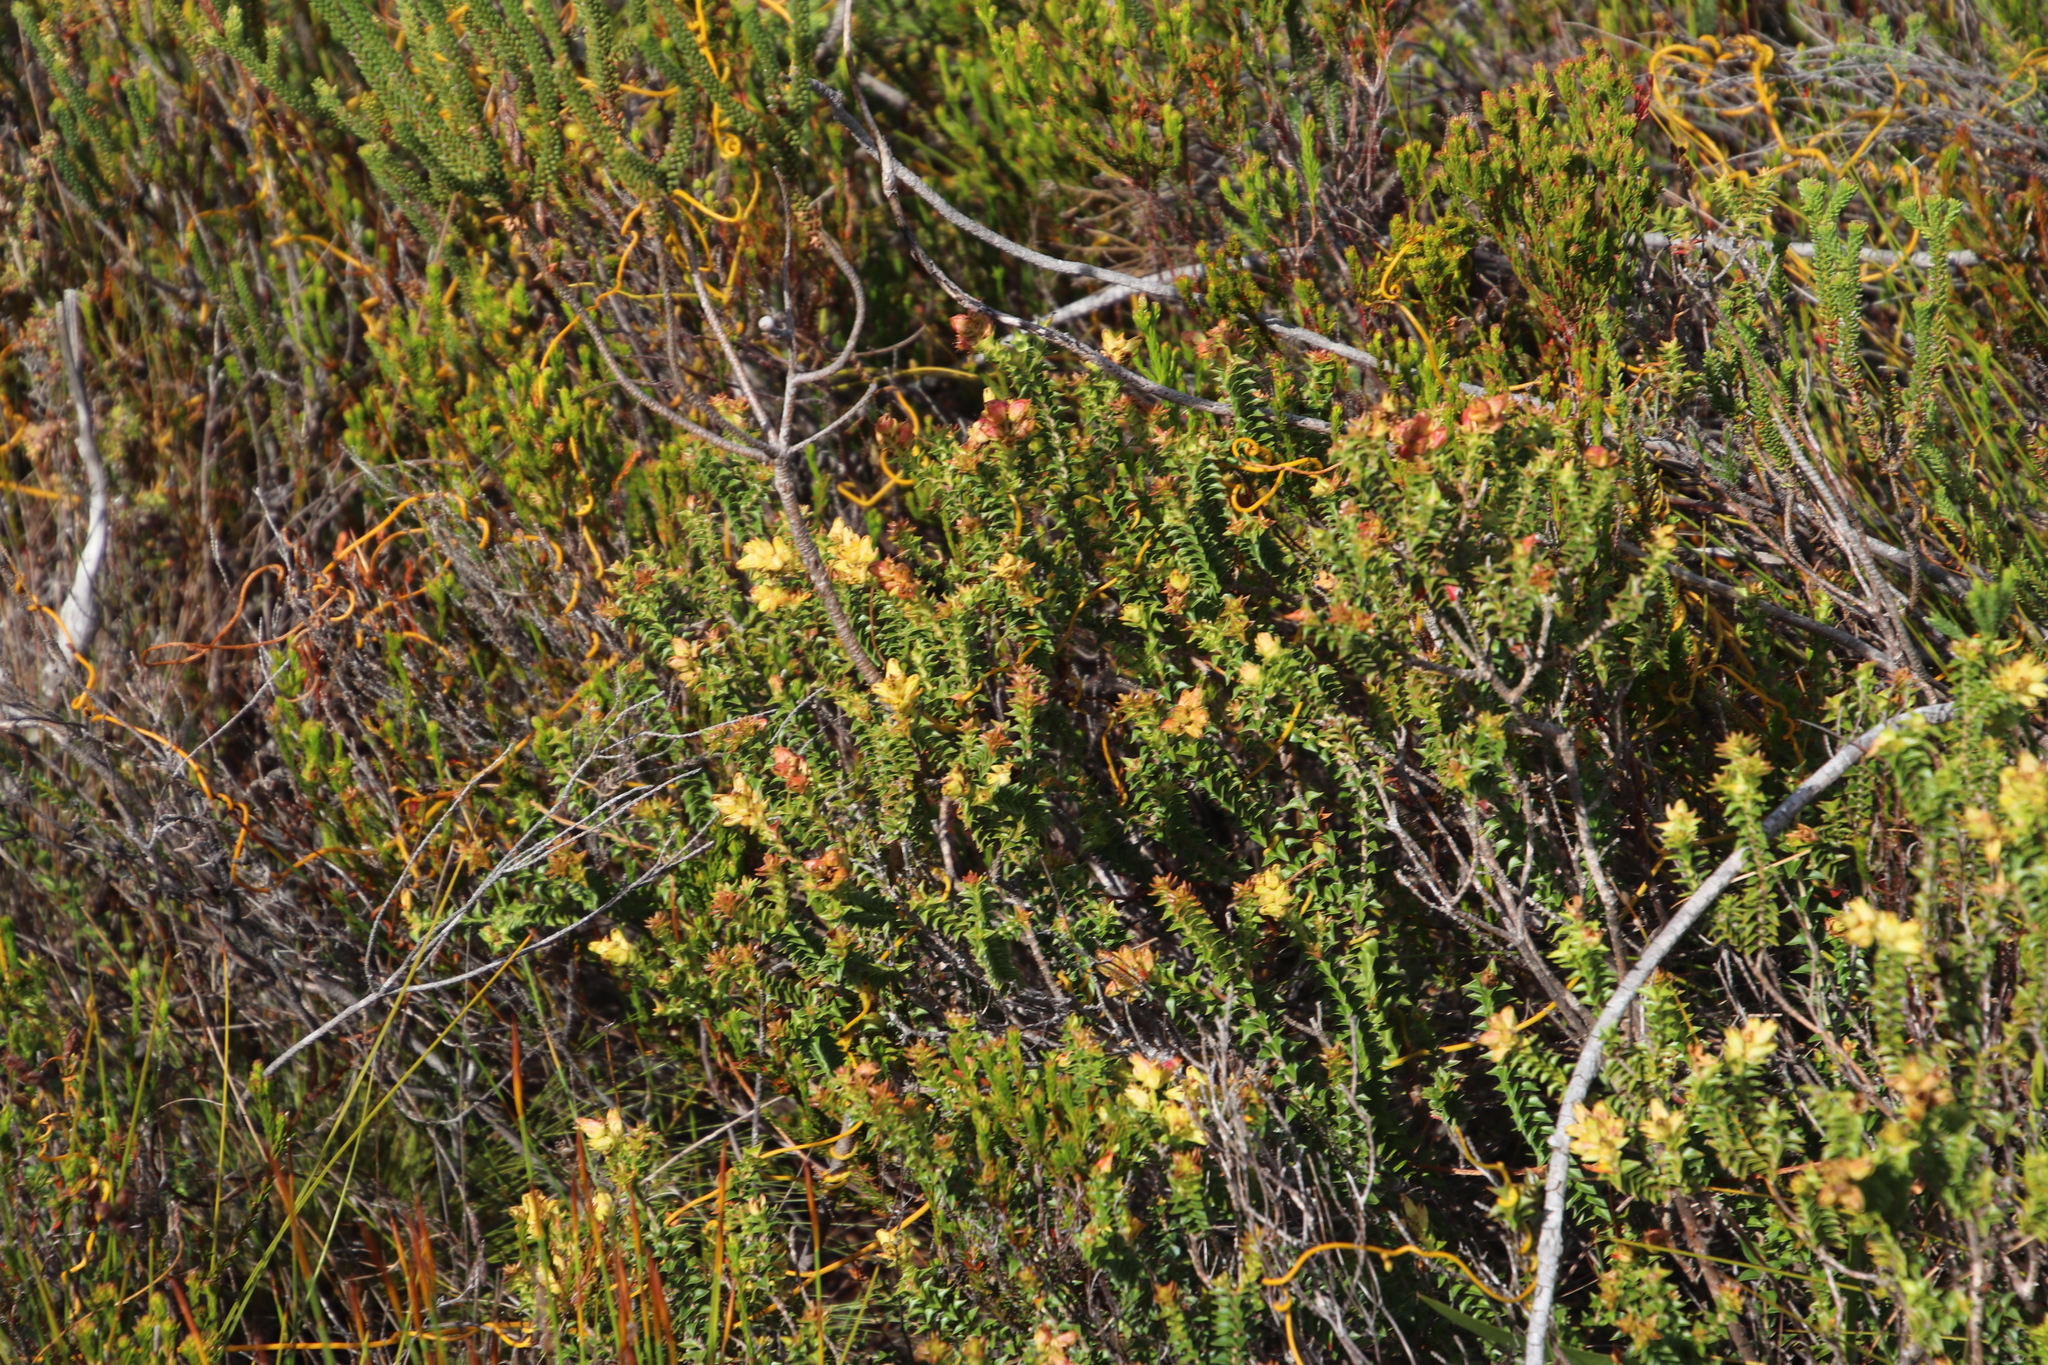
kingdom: Plantae
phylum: Tracheophyta
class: Magnoliopsida
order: Myrtales
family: Penaeaceae
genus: Penaea
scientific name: Penaea mucronata
